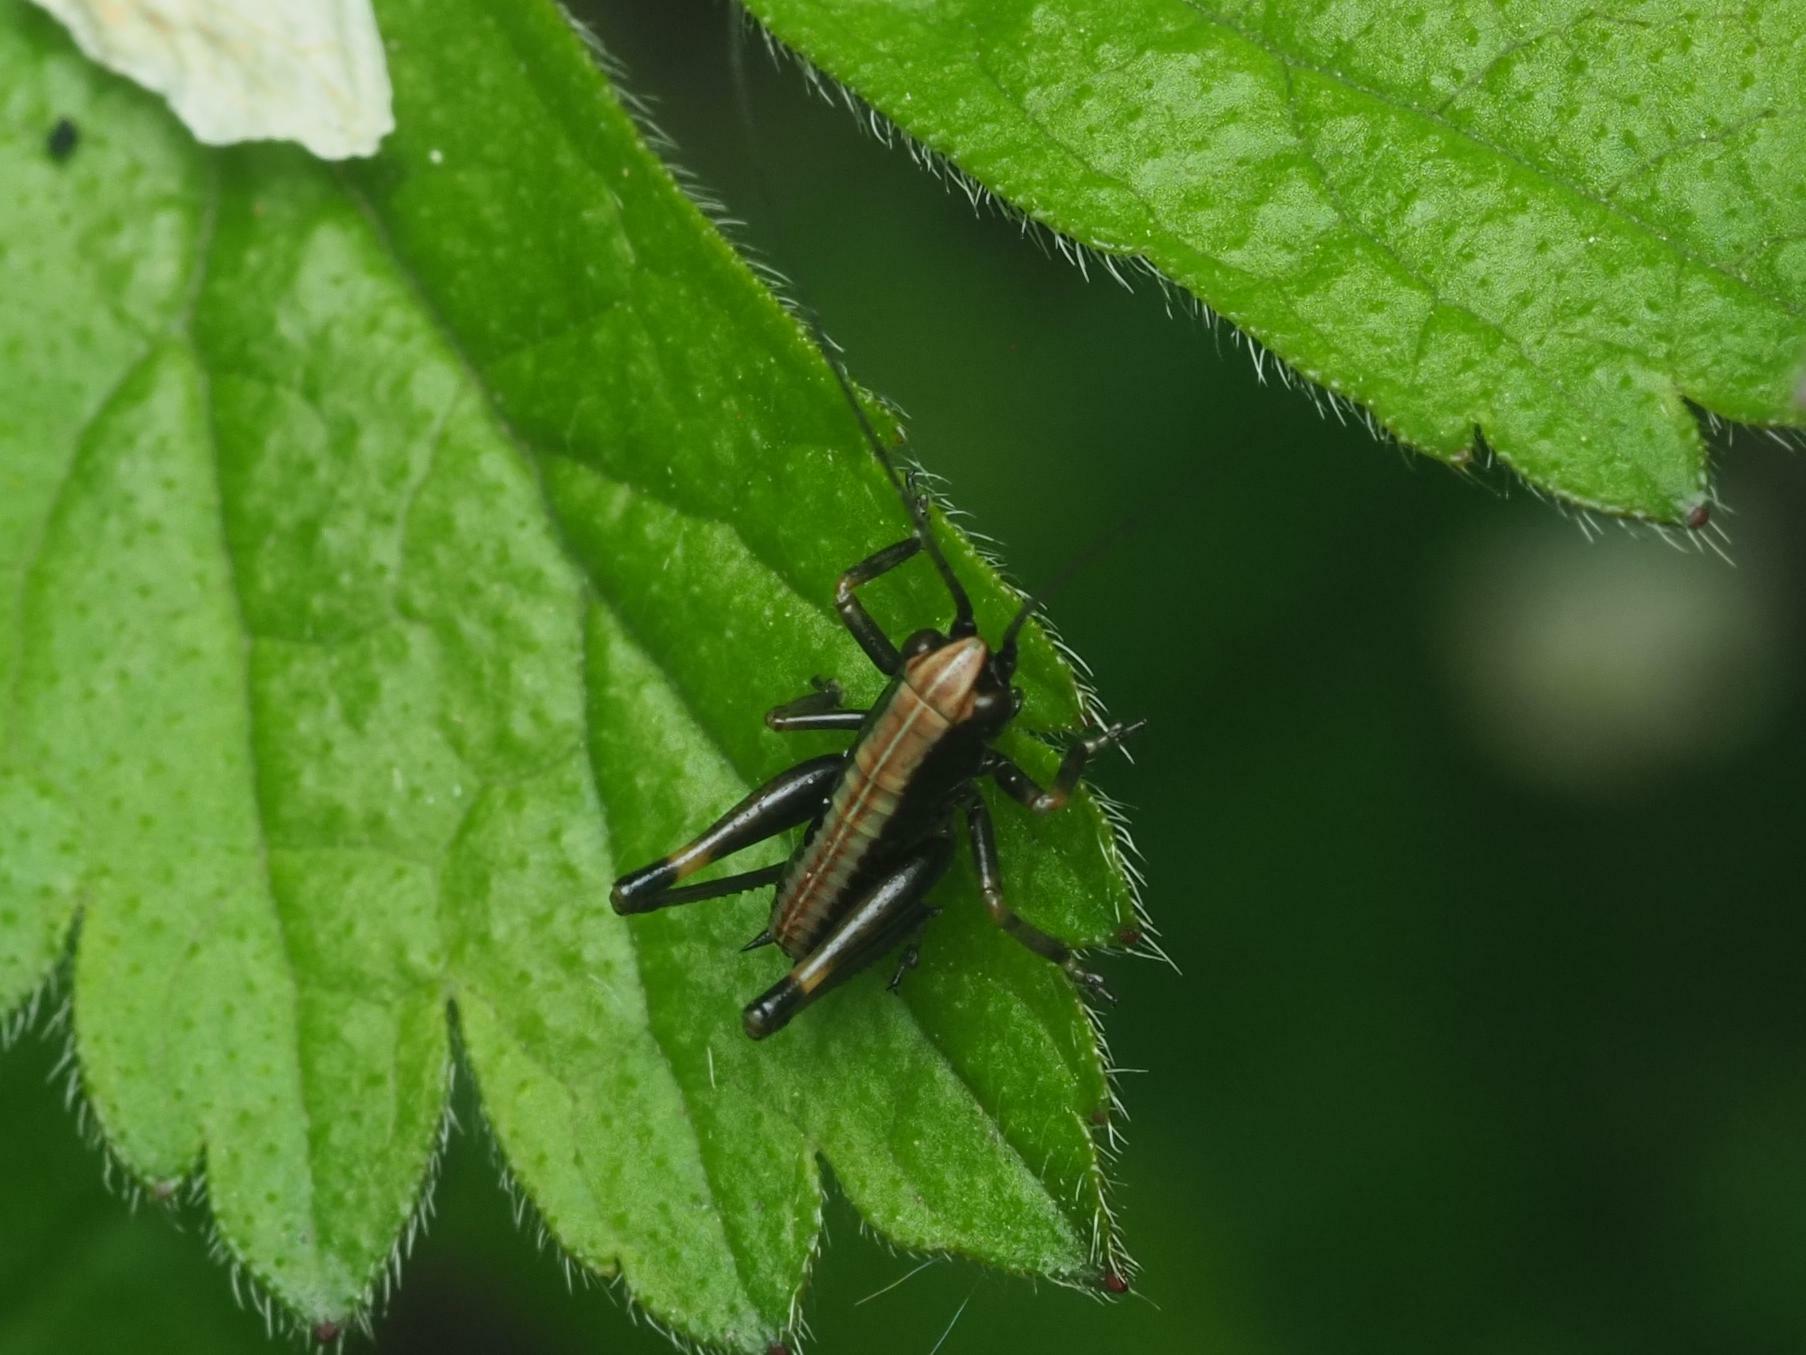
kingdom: Animalia
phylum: Arthropoda
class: Insecta
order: Orthoptera
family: Tettigoniidae
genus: Pholidoptera
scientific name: Pholidoptera griseoaptera
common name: Dark bush-cricket
